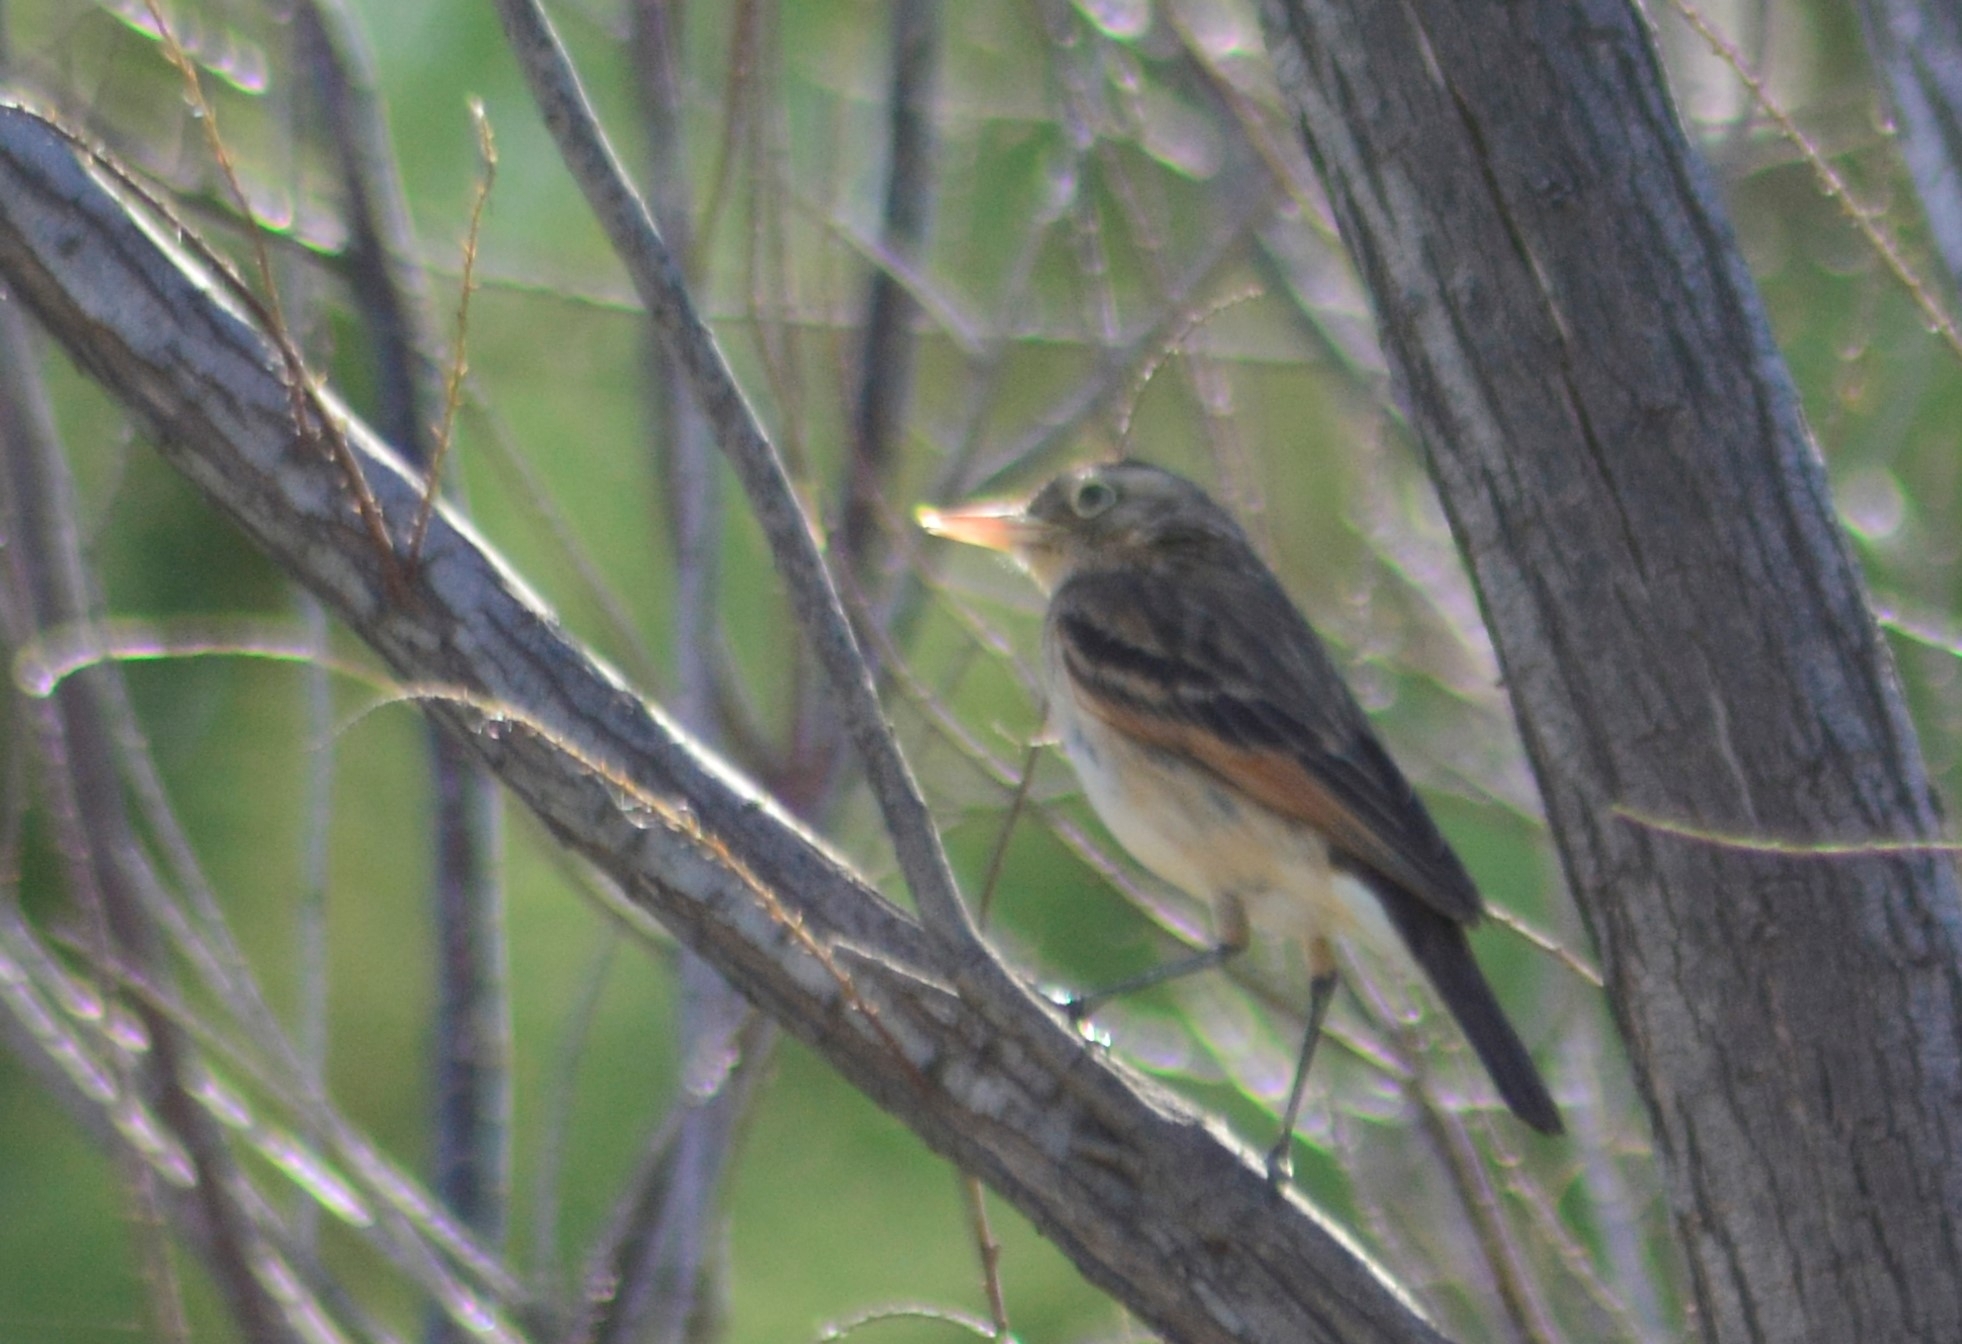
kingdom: Animalia
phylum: Chordata
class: Aves
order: Passeriformes
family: Tyrannidae
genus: Hymenops
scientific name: Hymenops perspicillatus
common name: Spectacled tyrant
